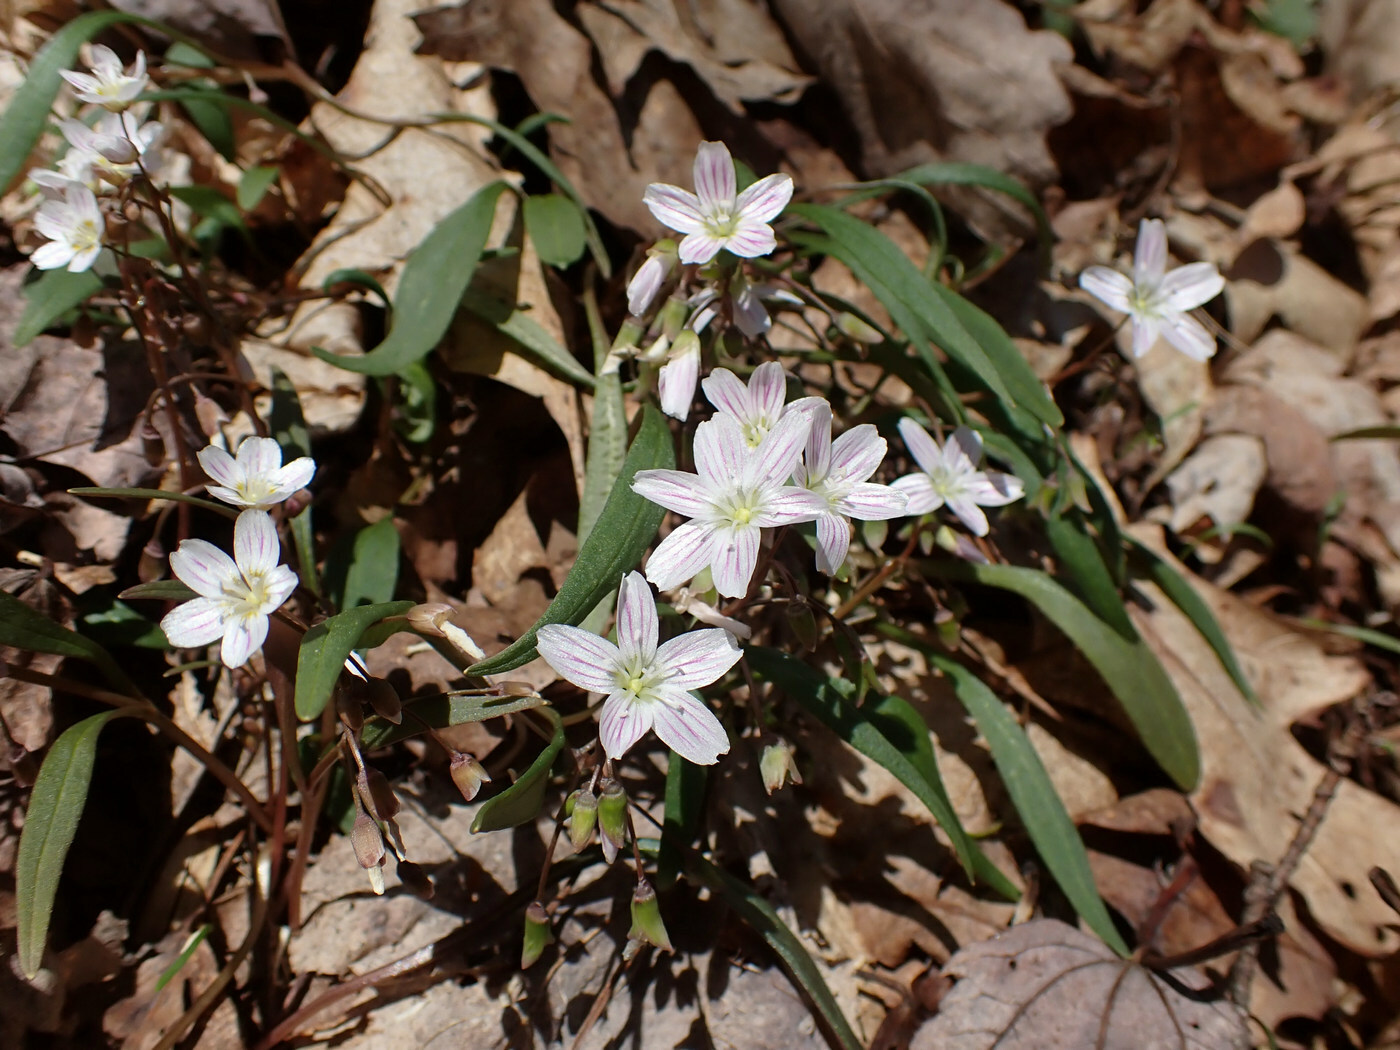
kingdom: Plantae
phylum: Tracheophyta
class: Magnoliopsida
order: Caryophyllales
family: Montiaceae
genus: Claytonia
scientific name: Claytonia caroliniana
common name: Carolina spring beauty
